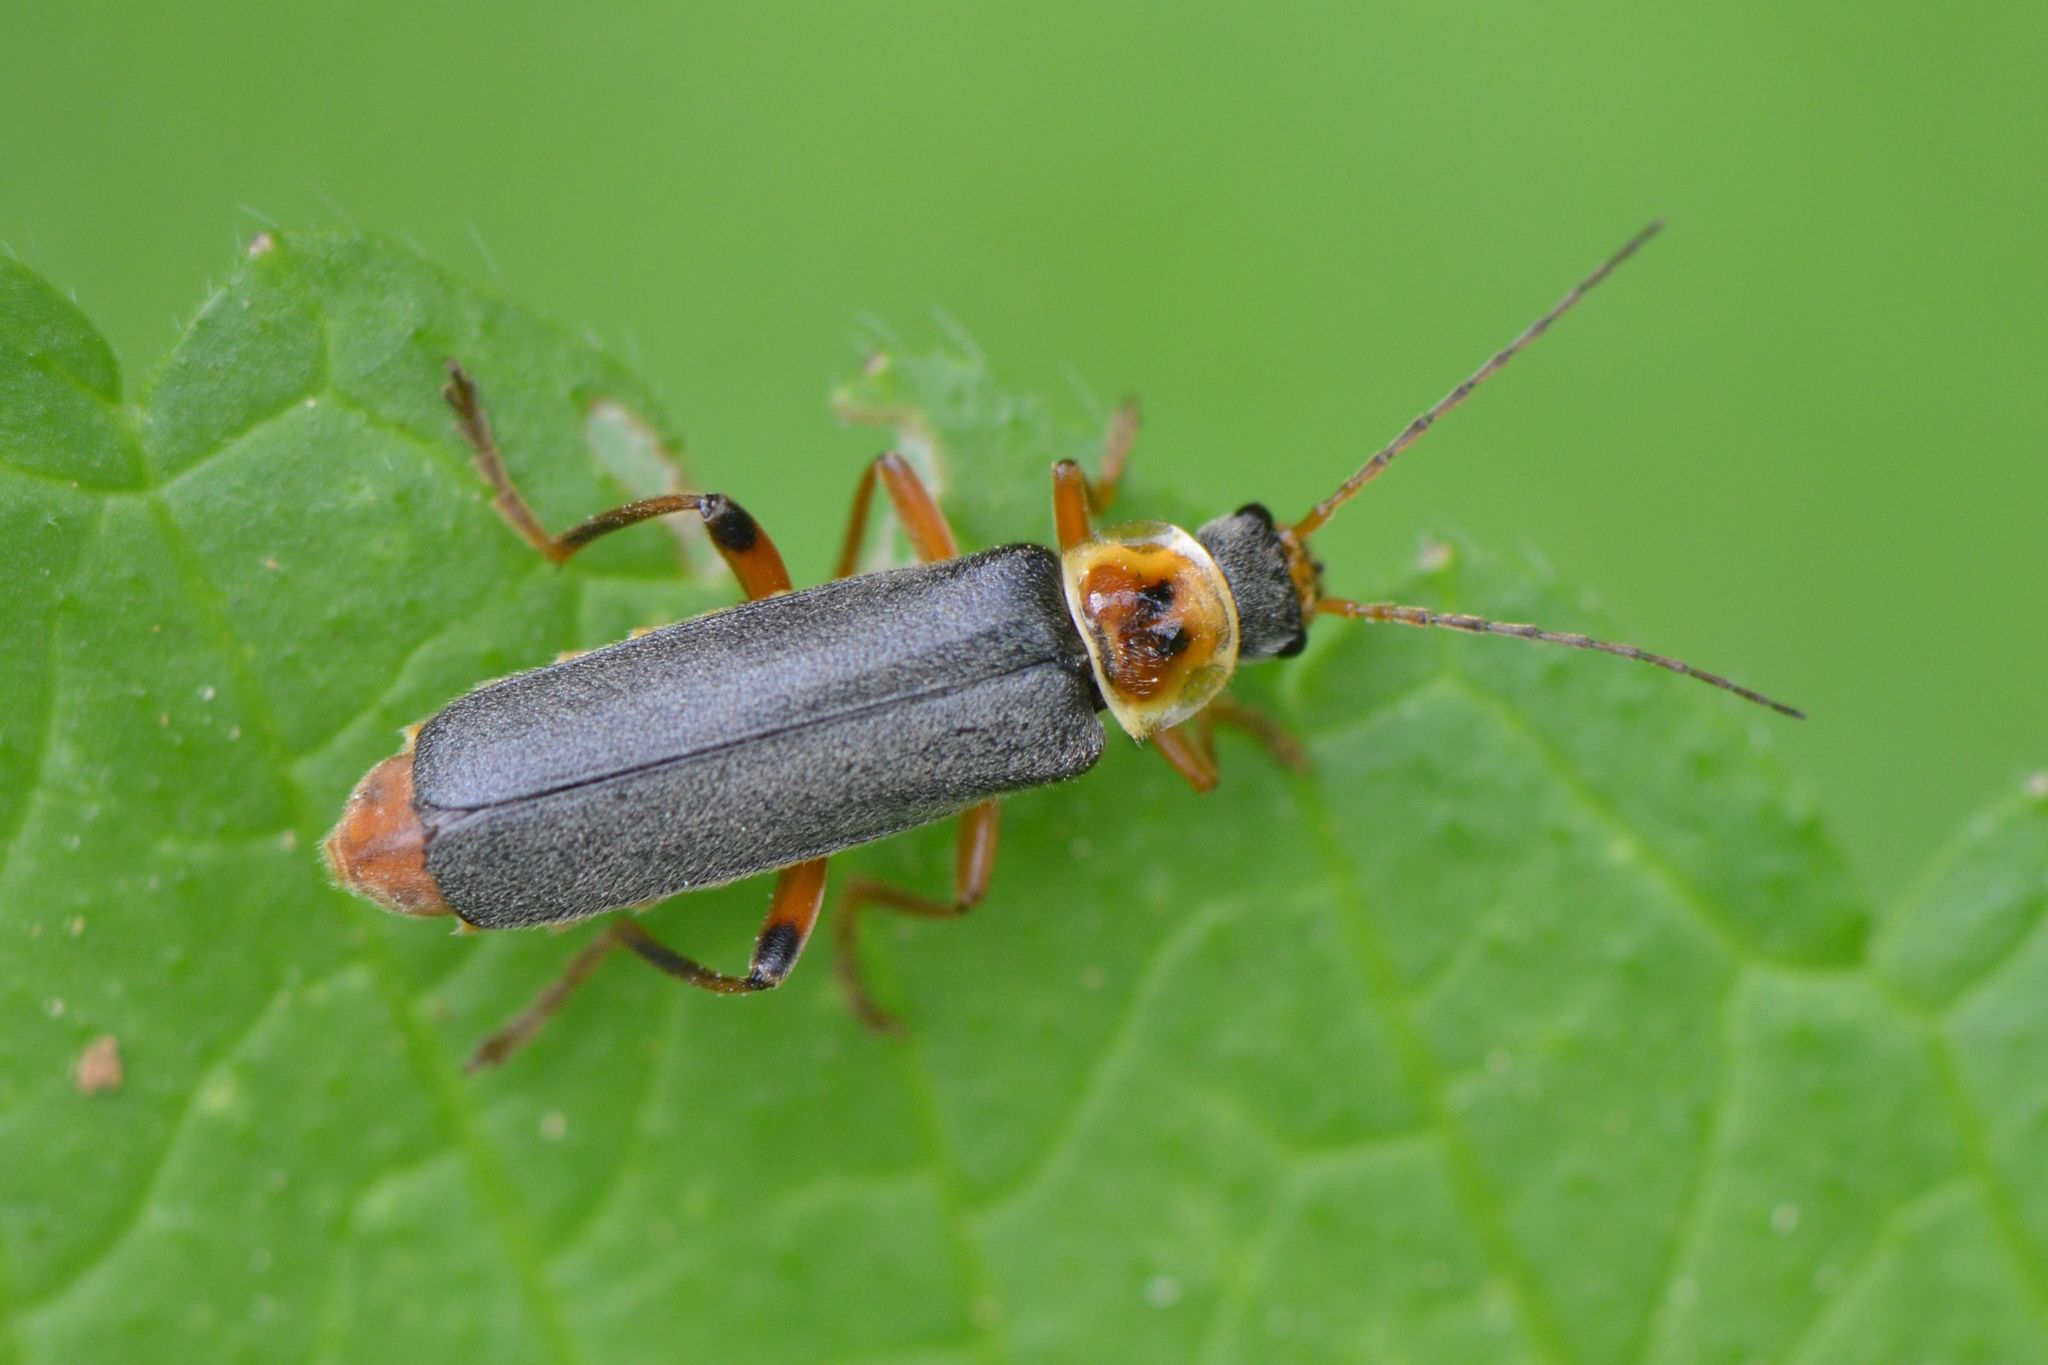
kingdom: Animalia
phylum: Arthropoda
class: Insecta
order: Coleoptera
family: Cantharidae
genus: Cantharis
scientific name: Cantharis nigricans
